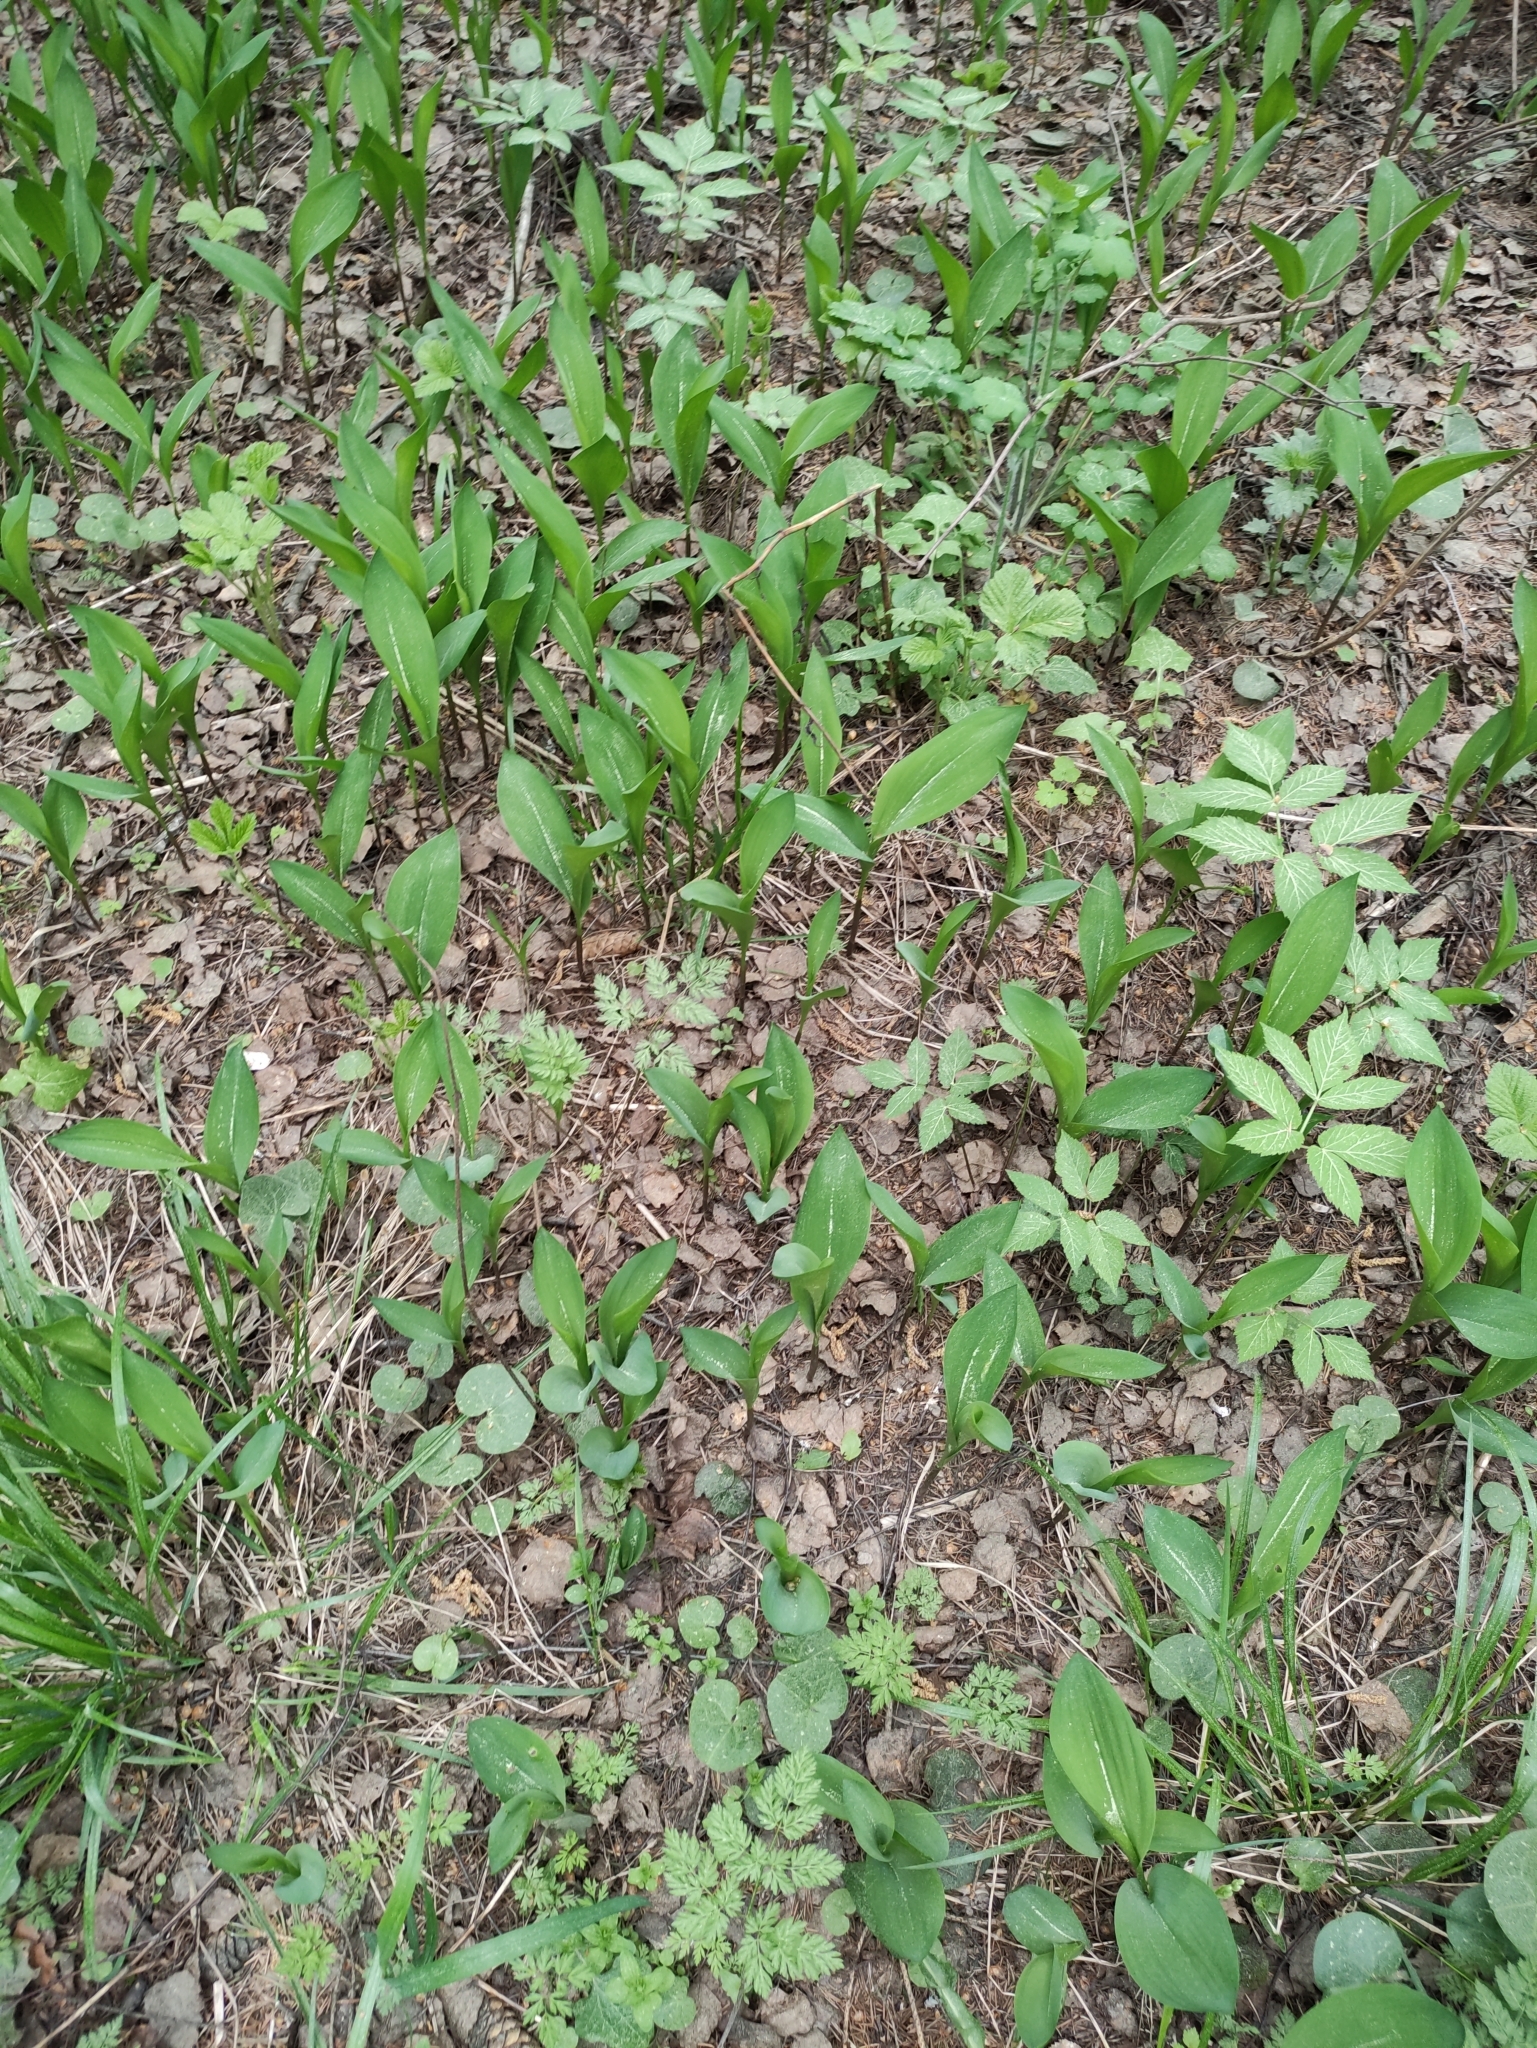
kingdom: Plantae
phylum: Tracheophyta
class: Liliopsida
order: Asparagales
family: Asparagaceae
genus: Convallaria
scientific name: Convallaria majalis
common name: Lily-of-the-valley
